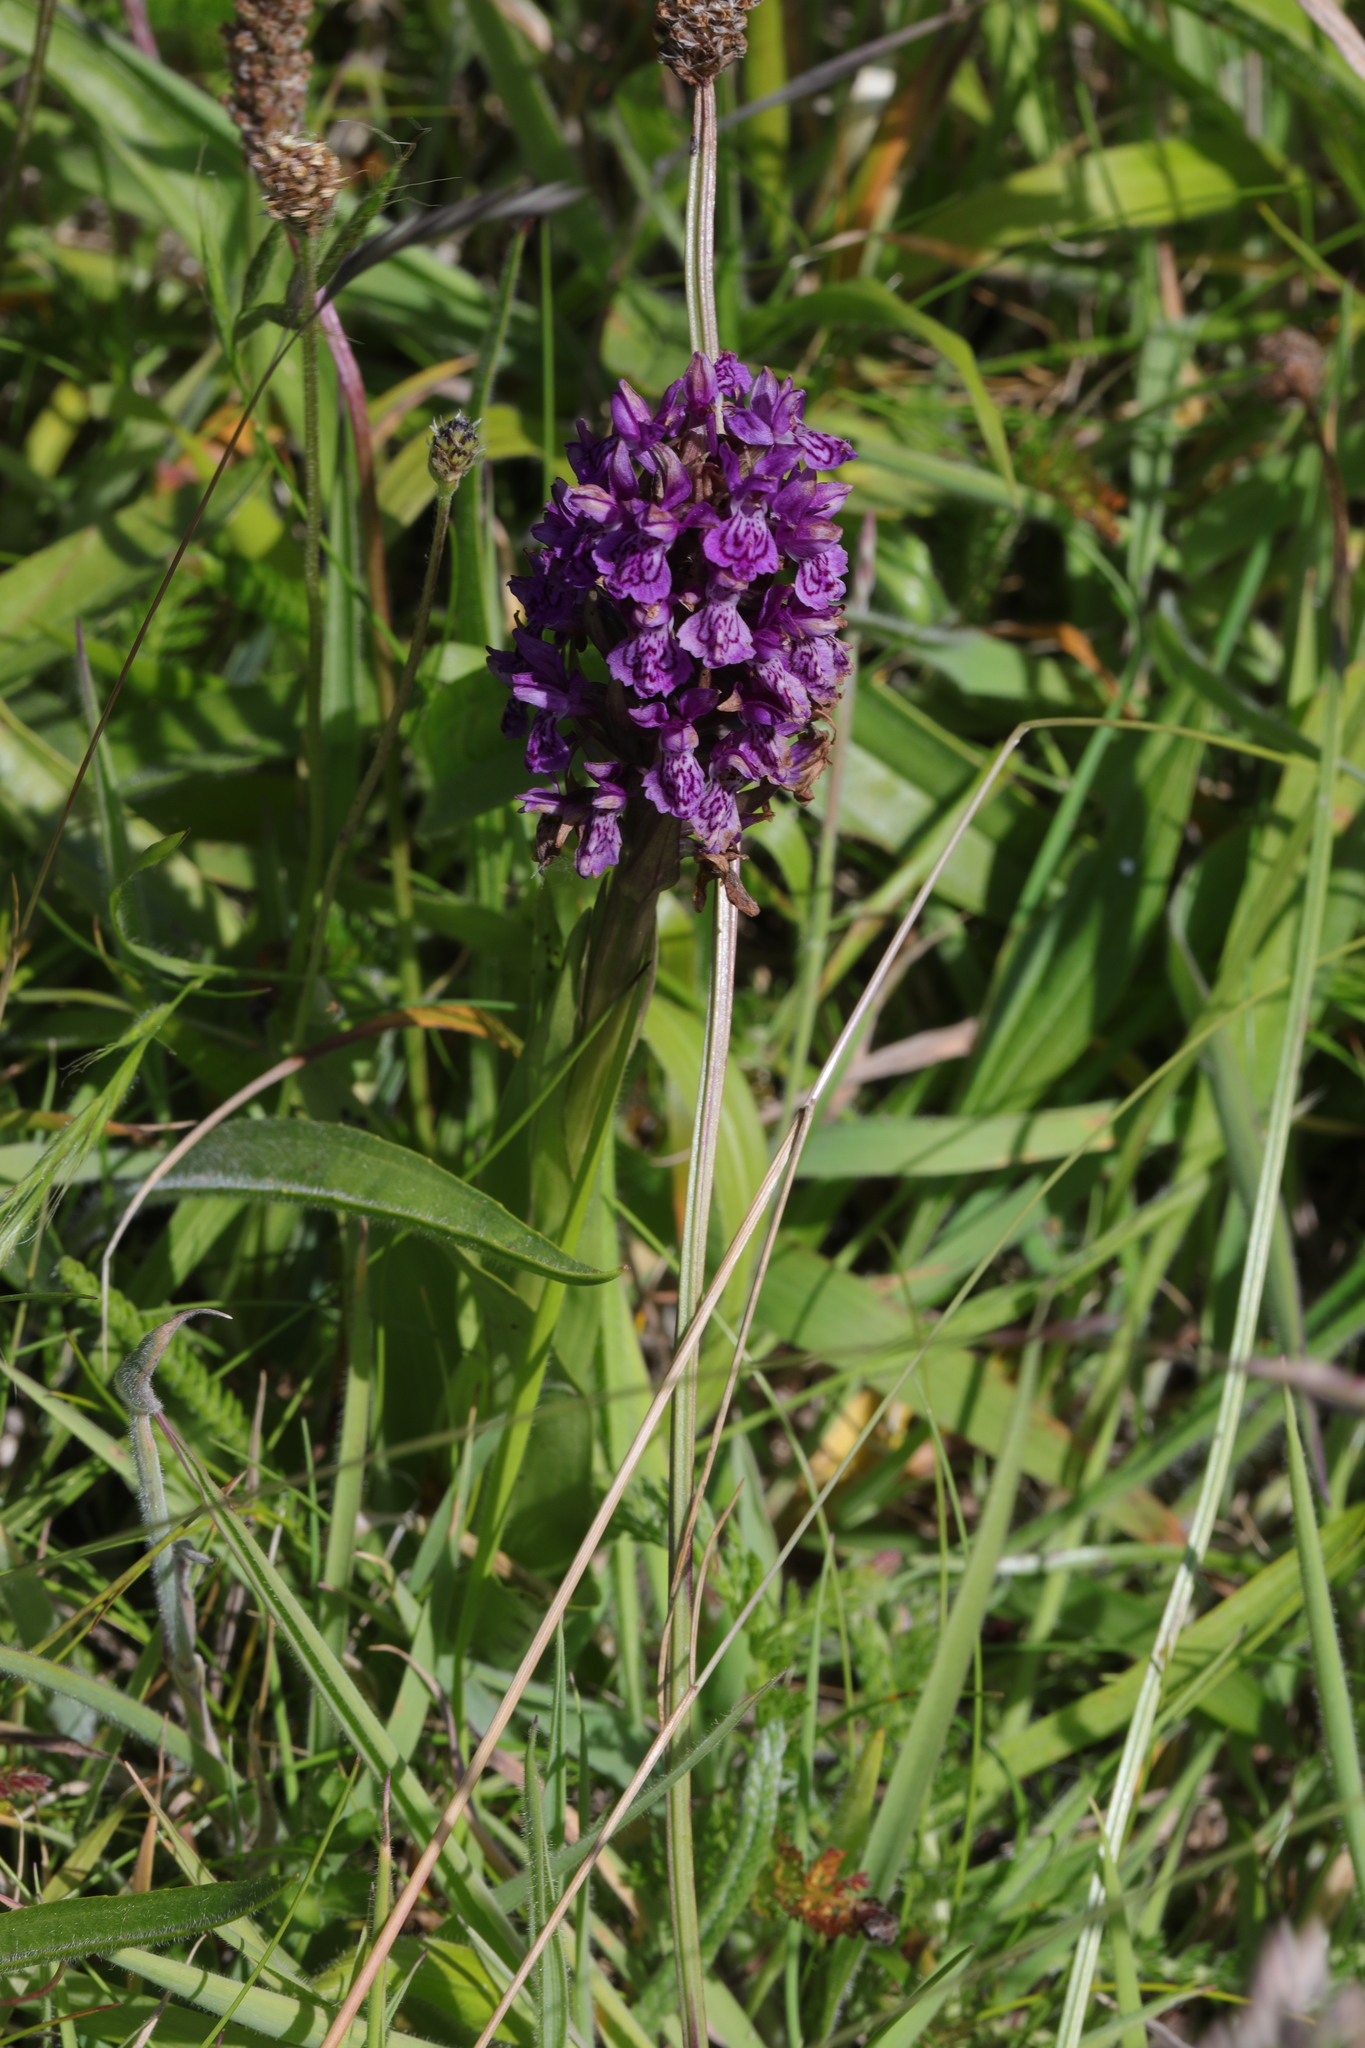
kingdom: Plantae
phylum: Tracheophyta
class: Liliopsida
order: Asparagales
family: Orchidaceae
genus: Dactylorhiza
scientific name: Dactylorhiza incarnata
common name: Early marsh-orchid
